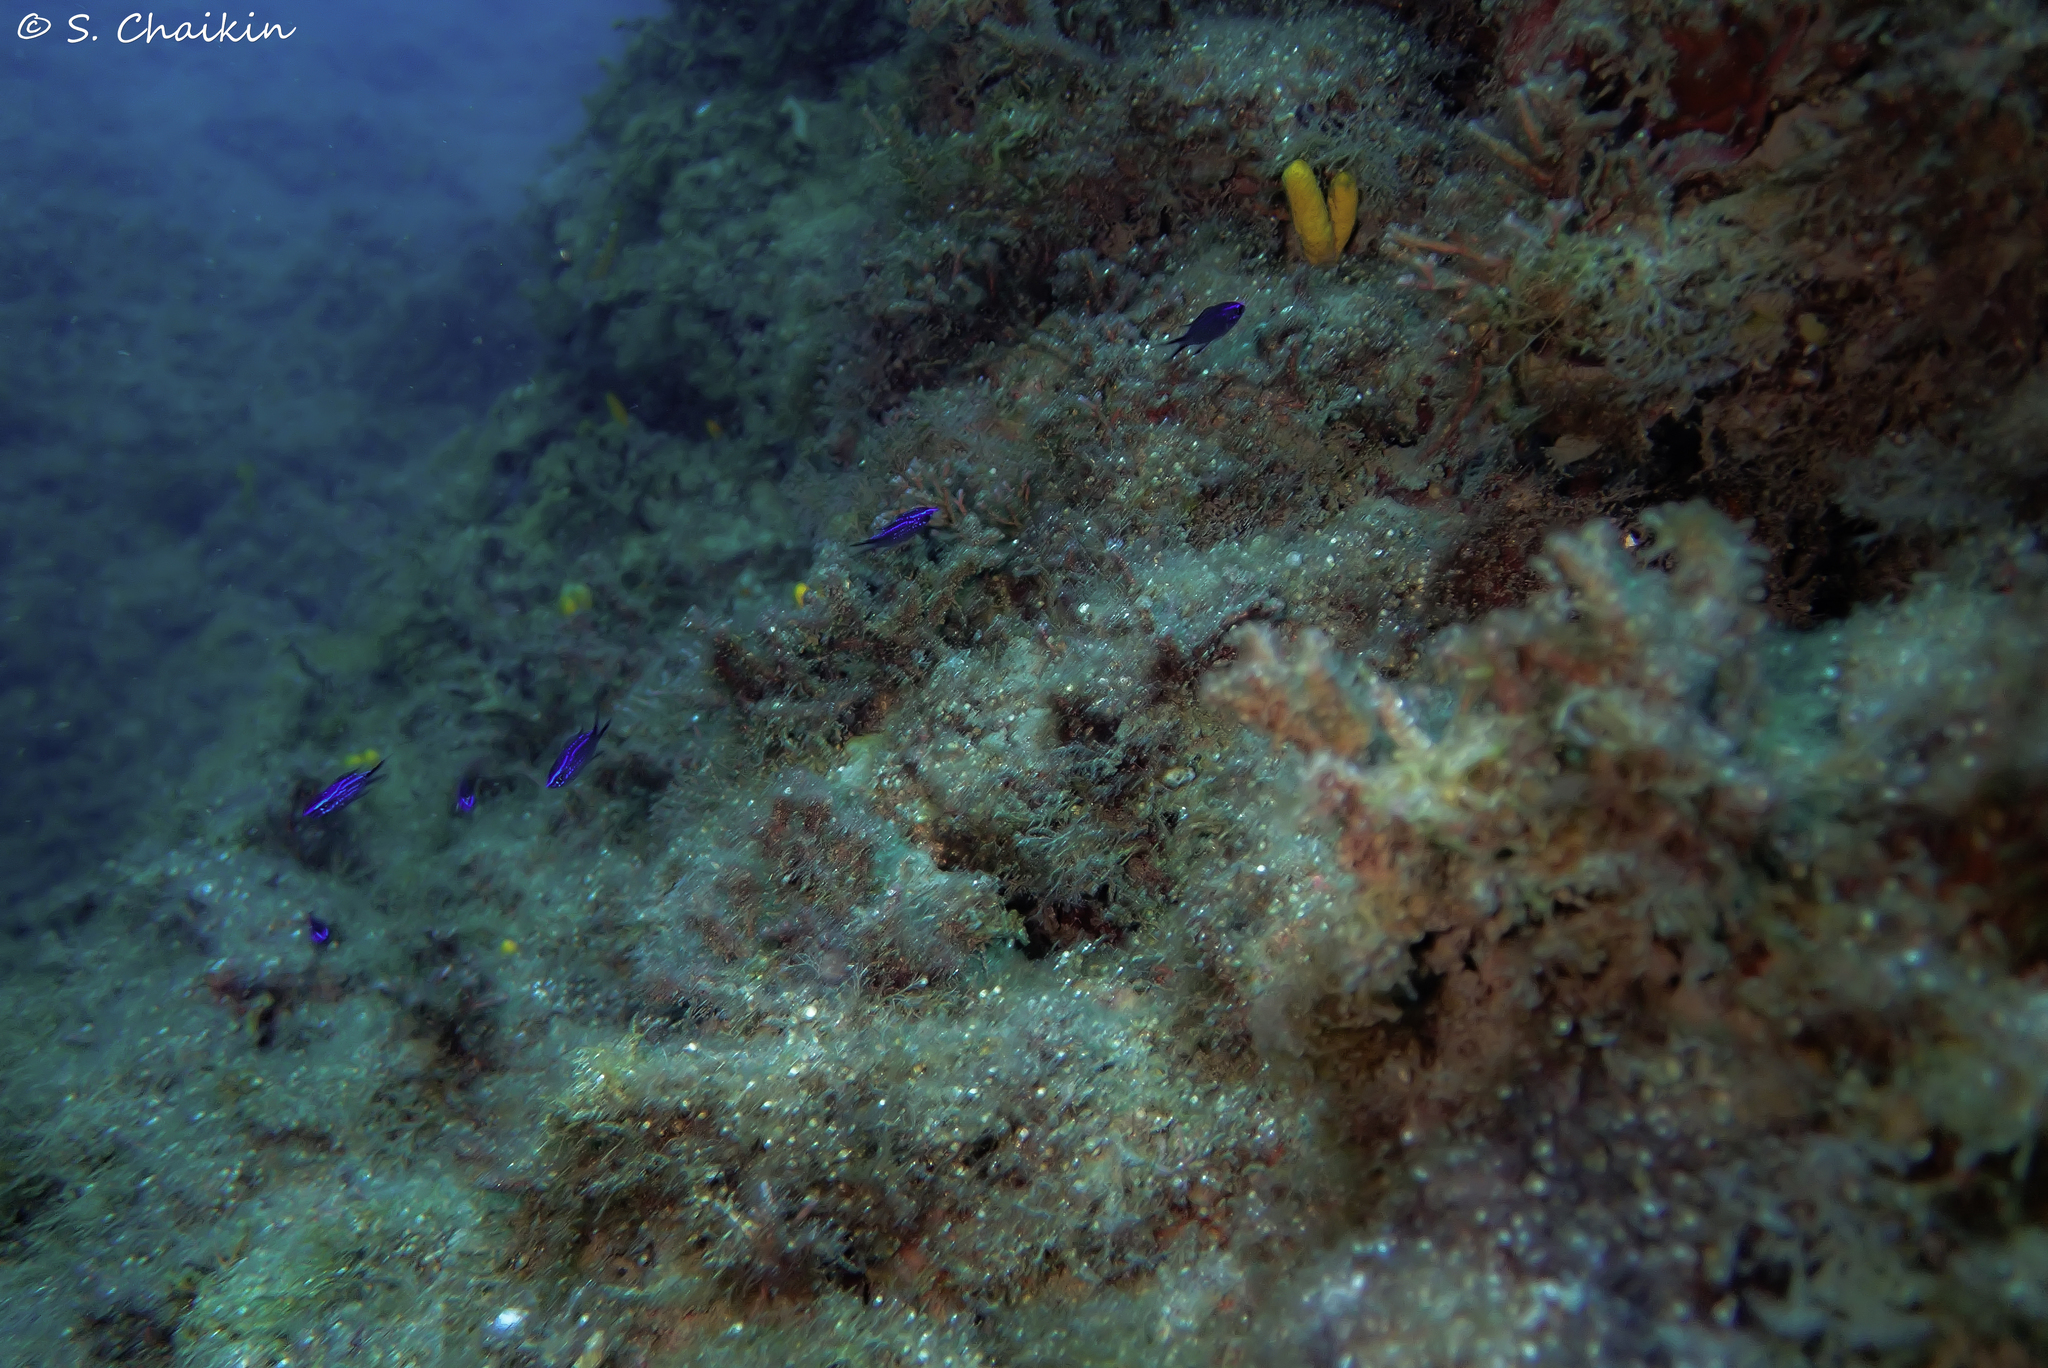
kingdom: Animalia
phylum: Chordata
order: Perciformes
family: Pomacentridae
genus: Chromis
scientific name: Chromis chromis
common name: Damselfish
